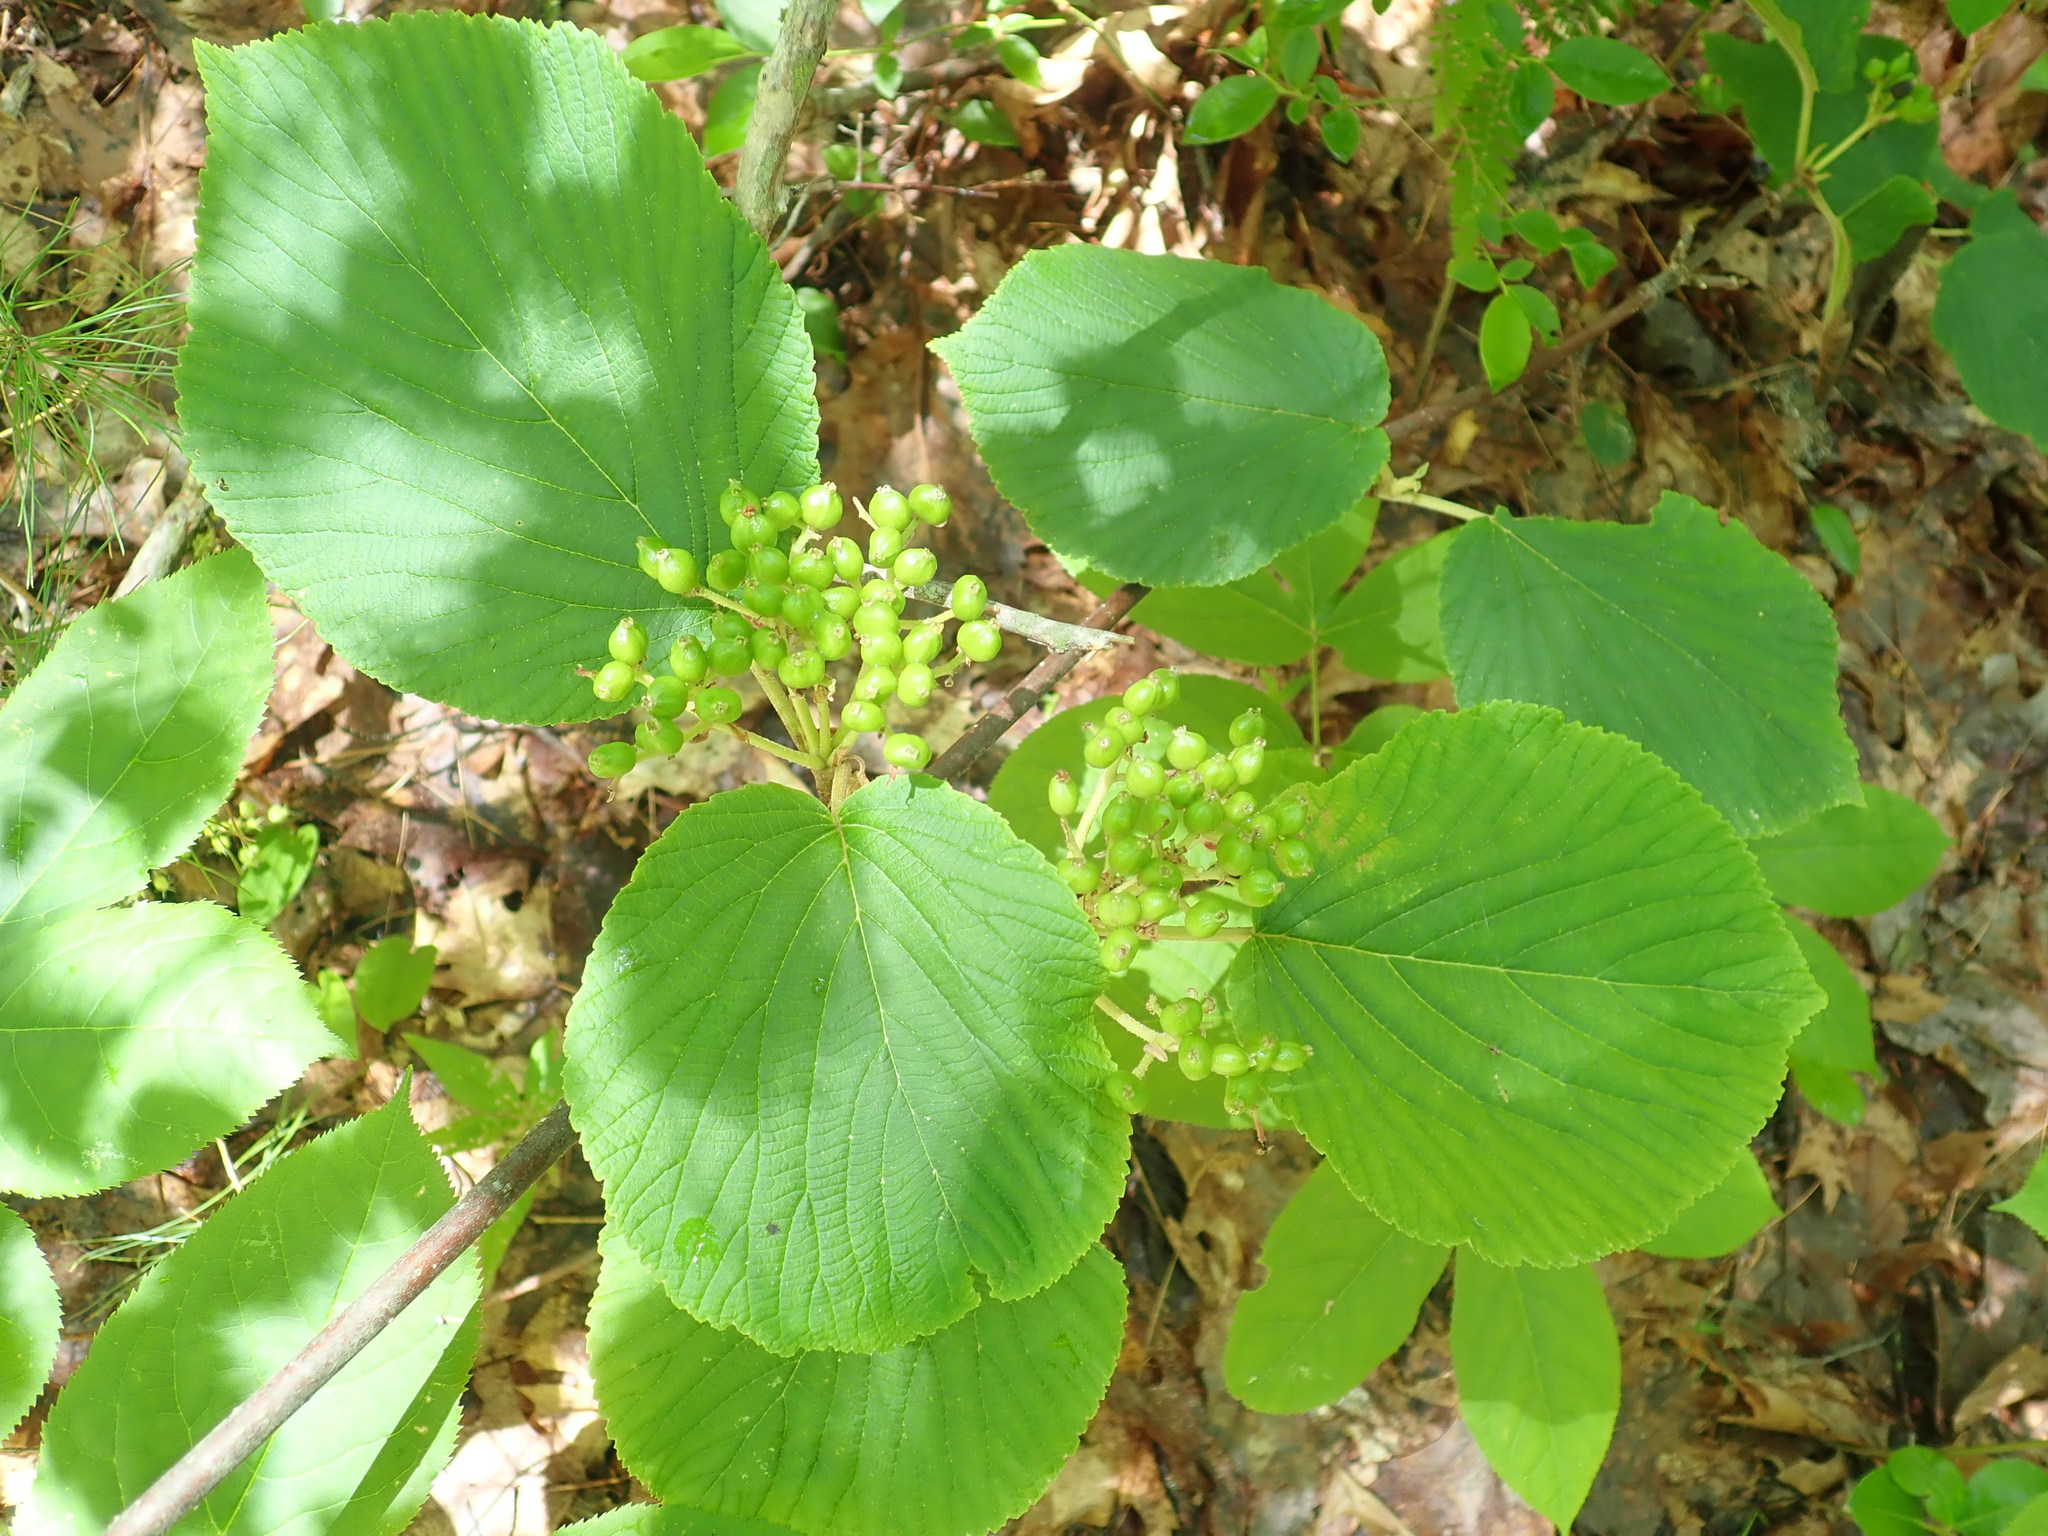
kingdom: Plantae
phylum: Tracheophyta
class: Magnoliopsida
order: Dipsacales
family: Viburnaceae
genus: Viburnum
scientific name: Viburnum lantanoides
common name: Hobblebush
